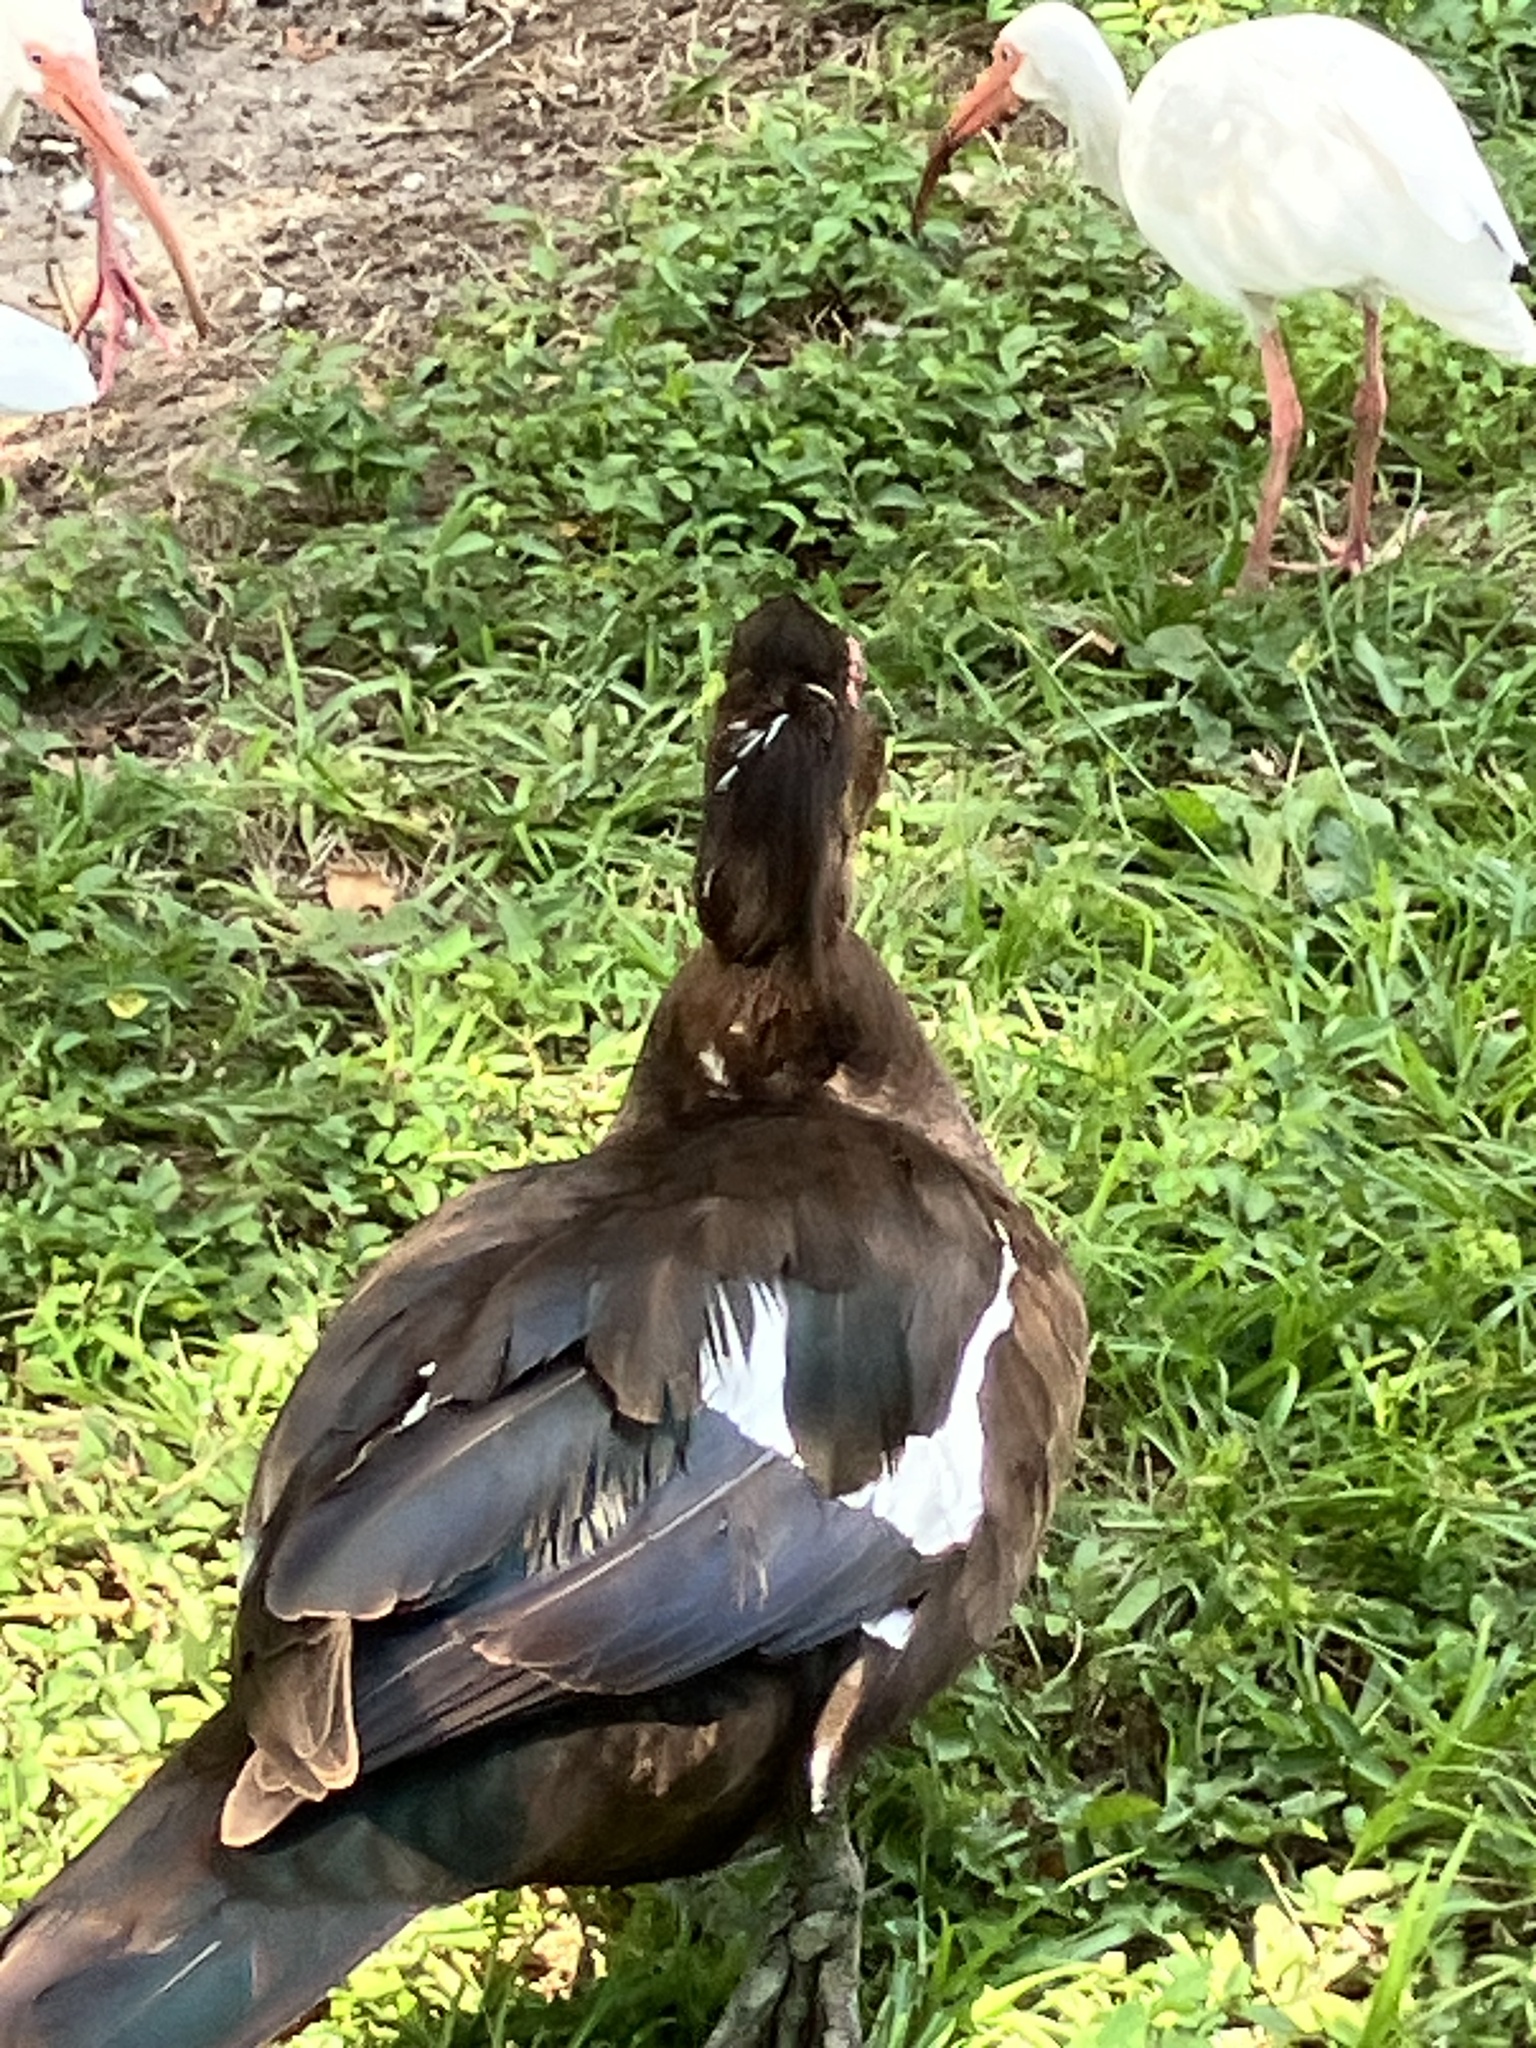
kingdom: Animalia
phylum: Chordata
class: Aves
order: Anseriformes
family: Anatidae
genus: Cairina
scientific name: Cairina moschata
